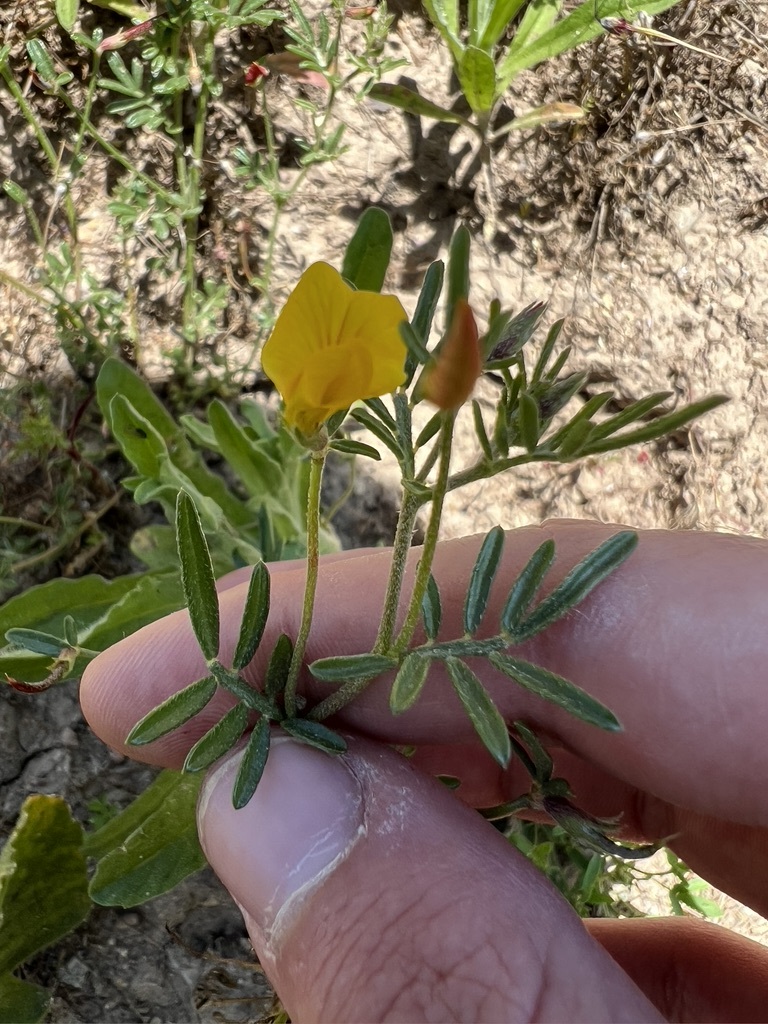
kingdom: Plantae
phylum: Tracheophyta
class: Magnoliopsida
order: Fabales
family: Fabaceae
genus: Acmispon
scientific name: Acmispon strigosus
